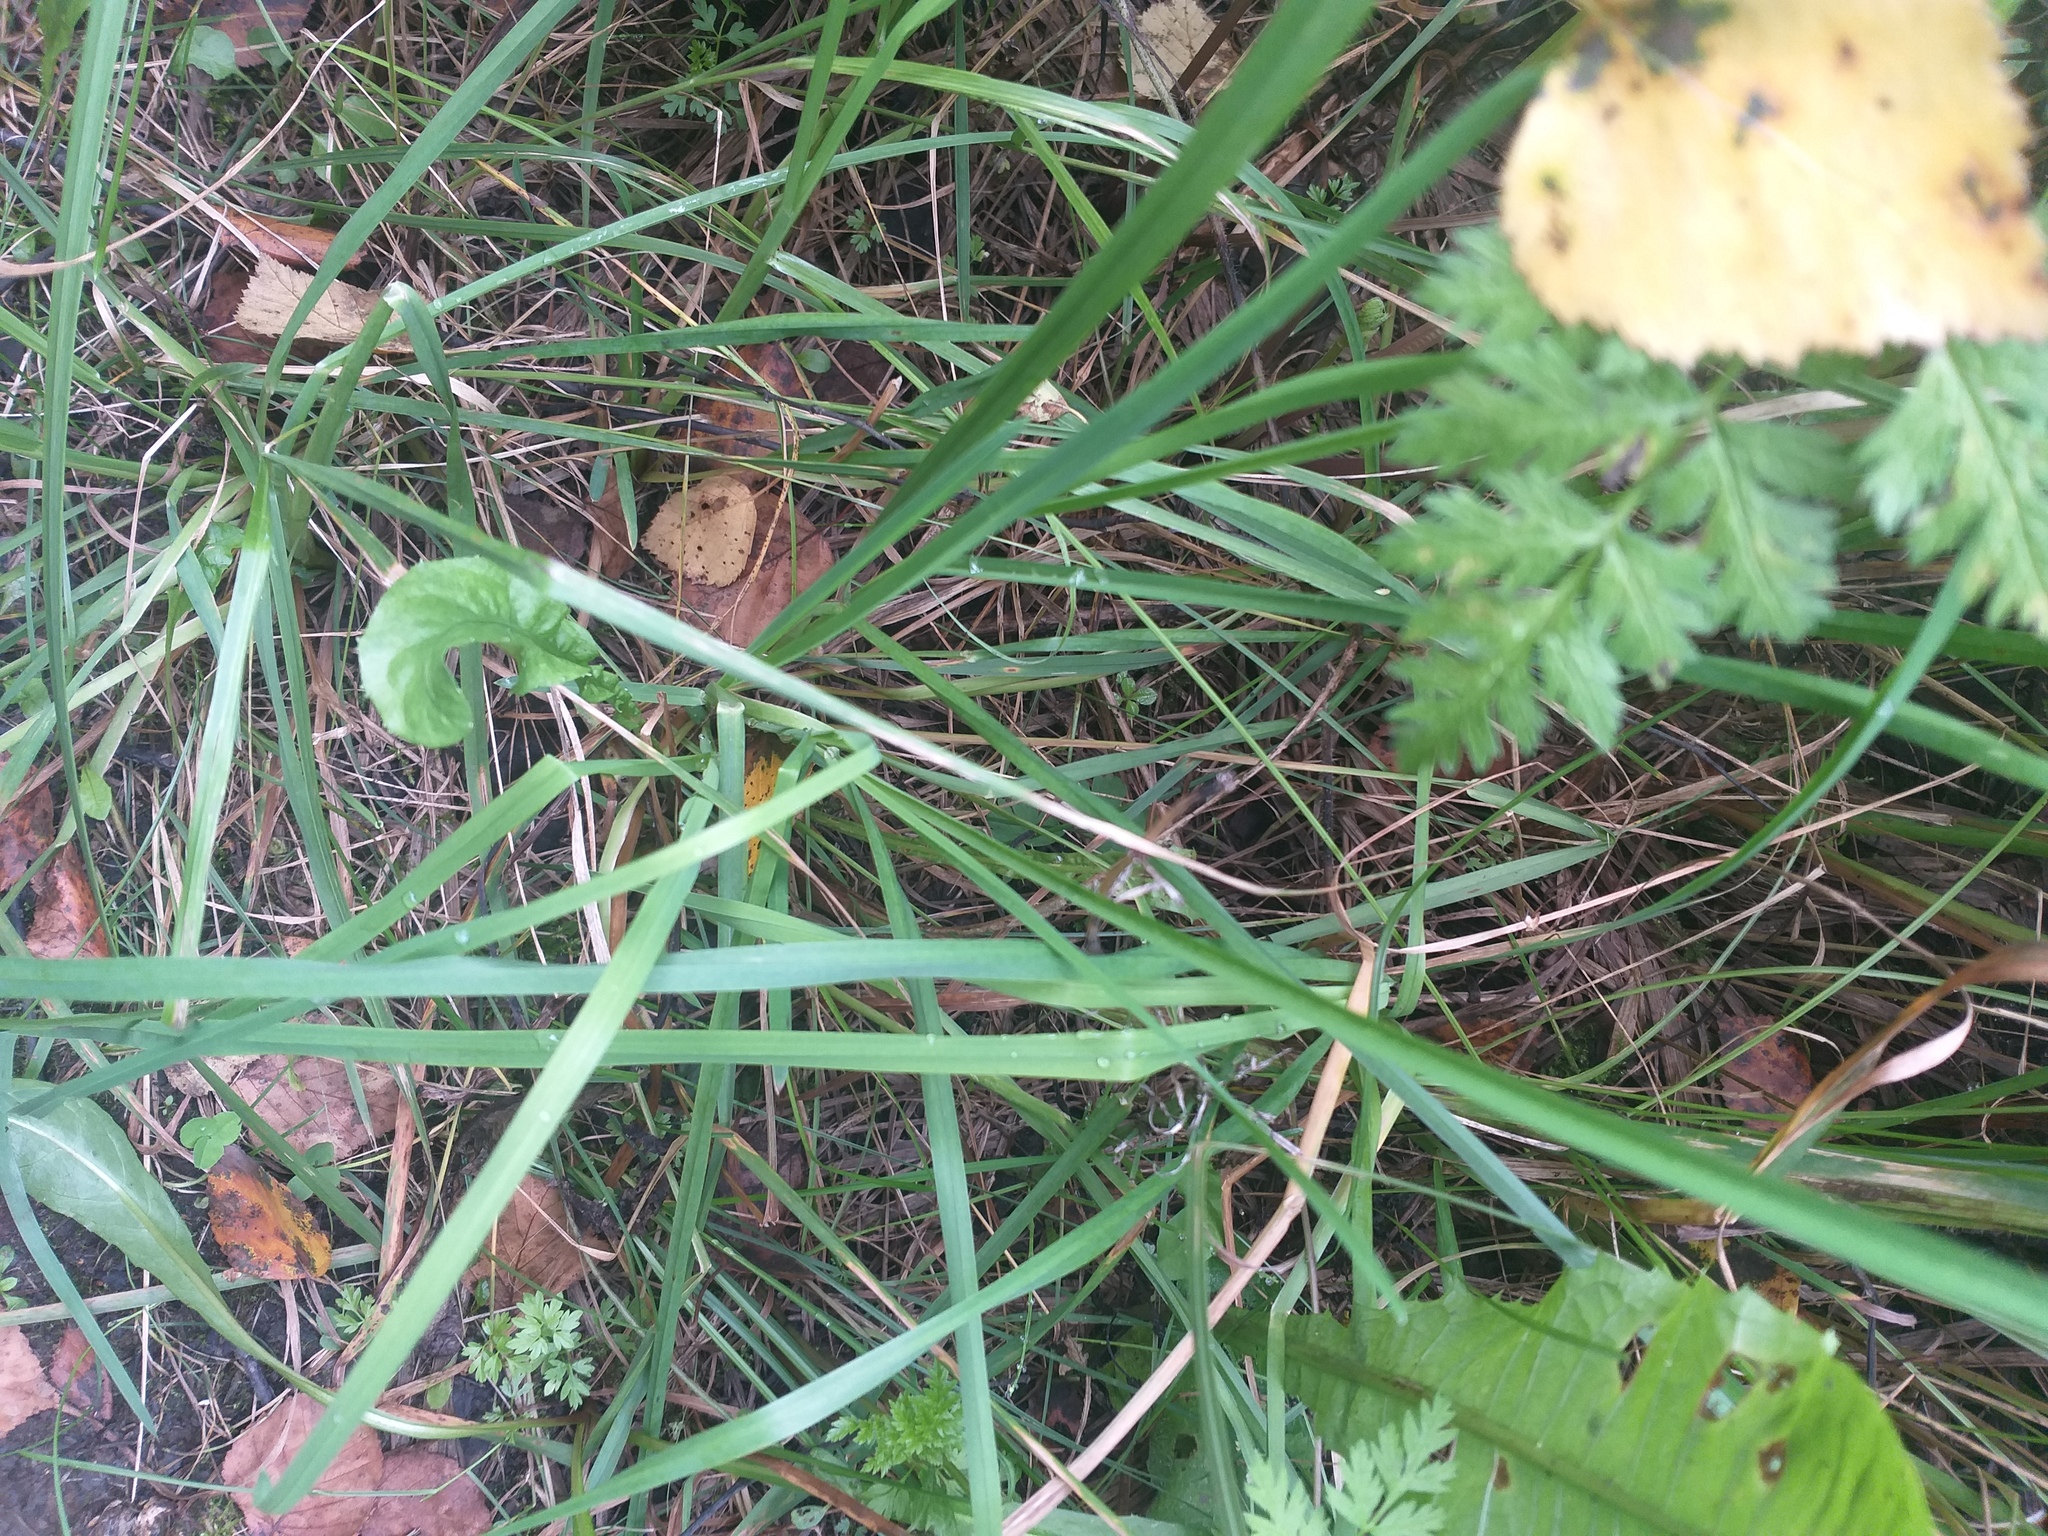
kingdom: Plantae
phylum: Tracheophyta
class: Liliopsida
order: Poales
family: Poaceae
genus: Dactylis
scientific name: Dactylis glomerata
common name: Orchardgrass
